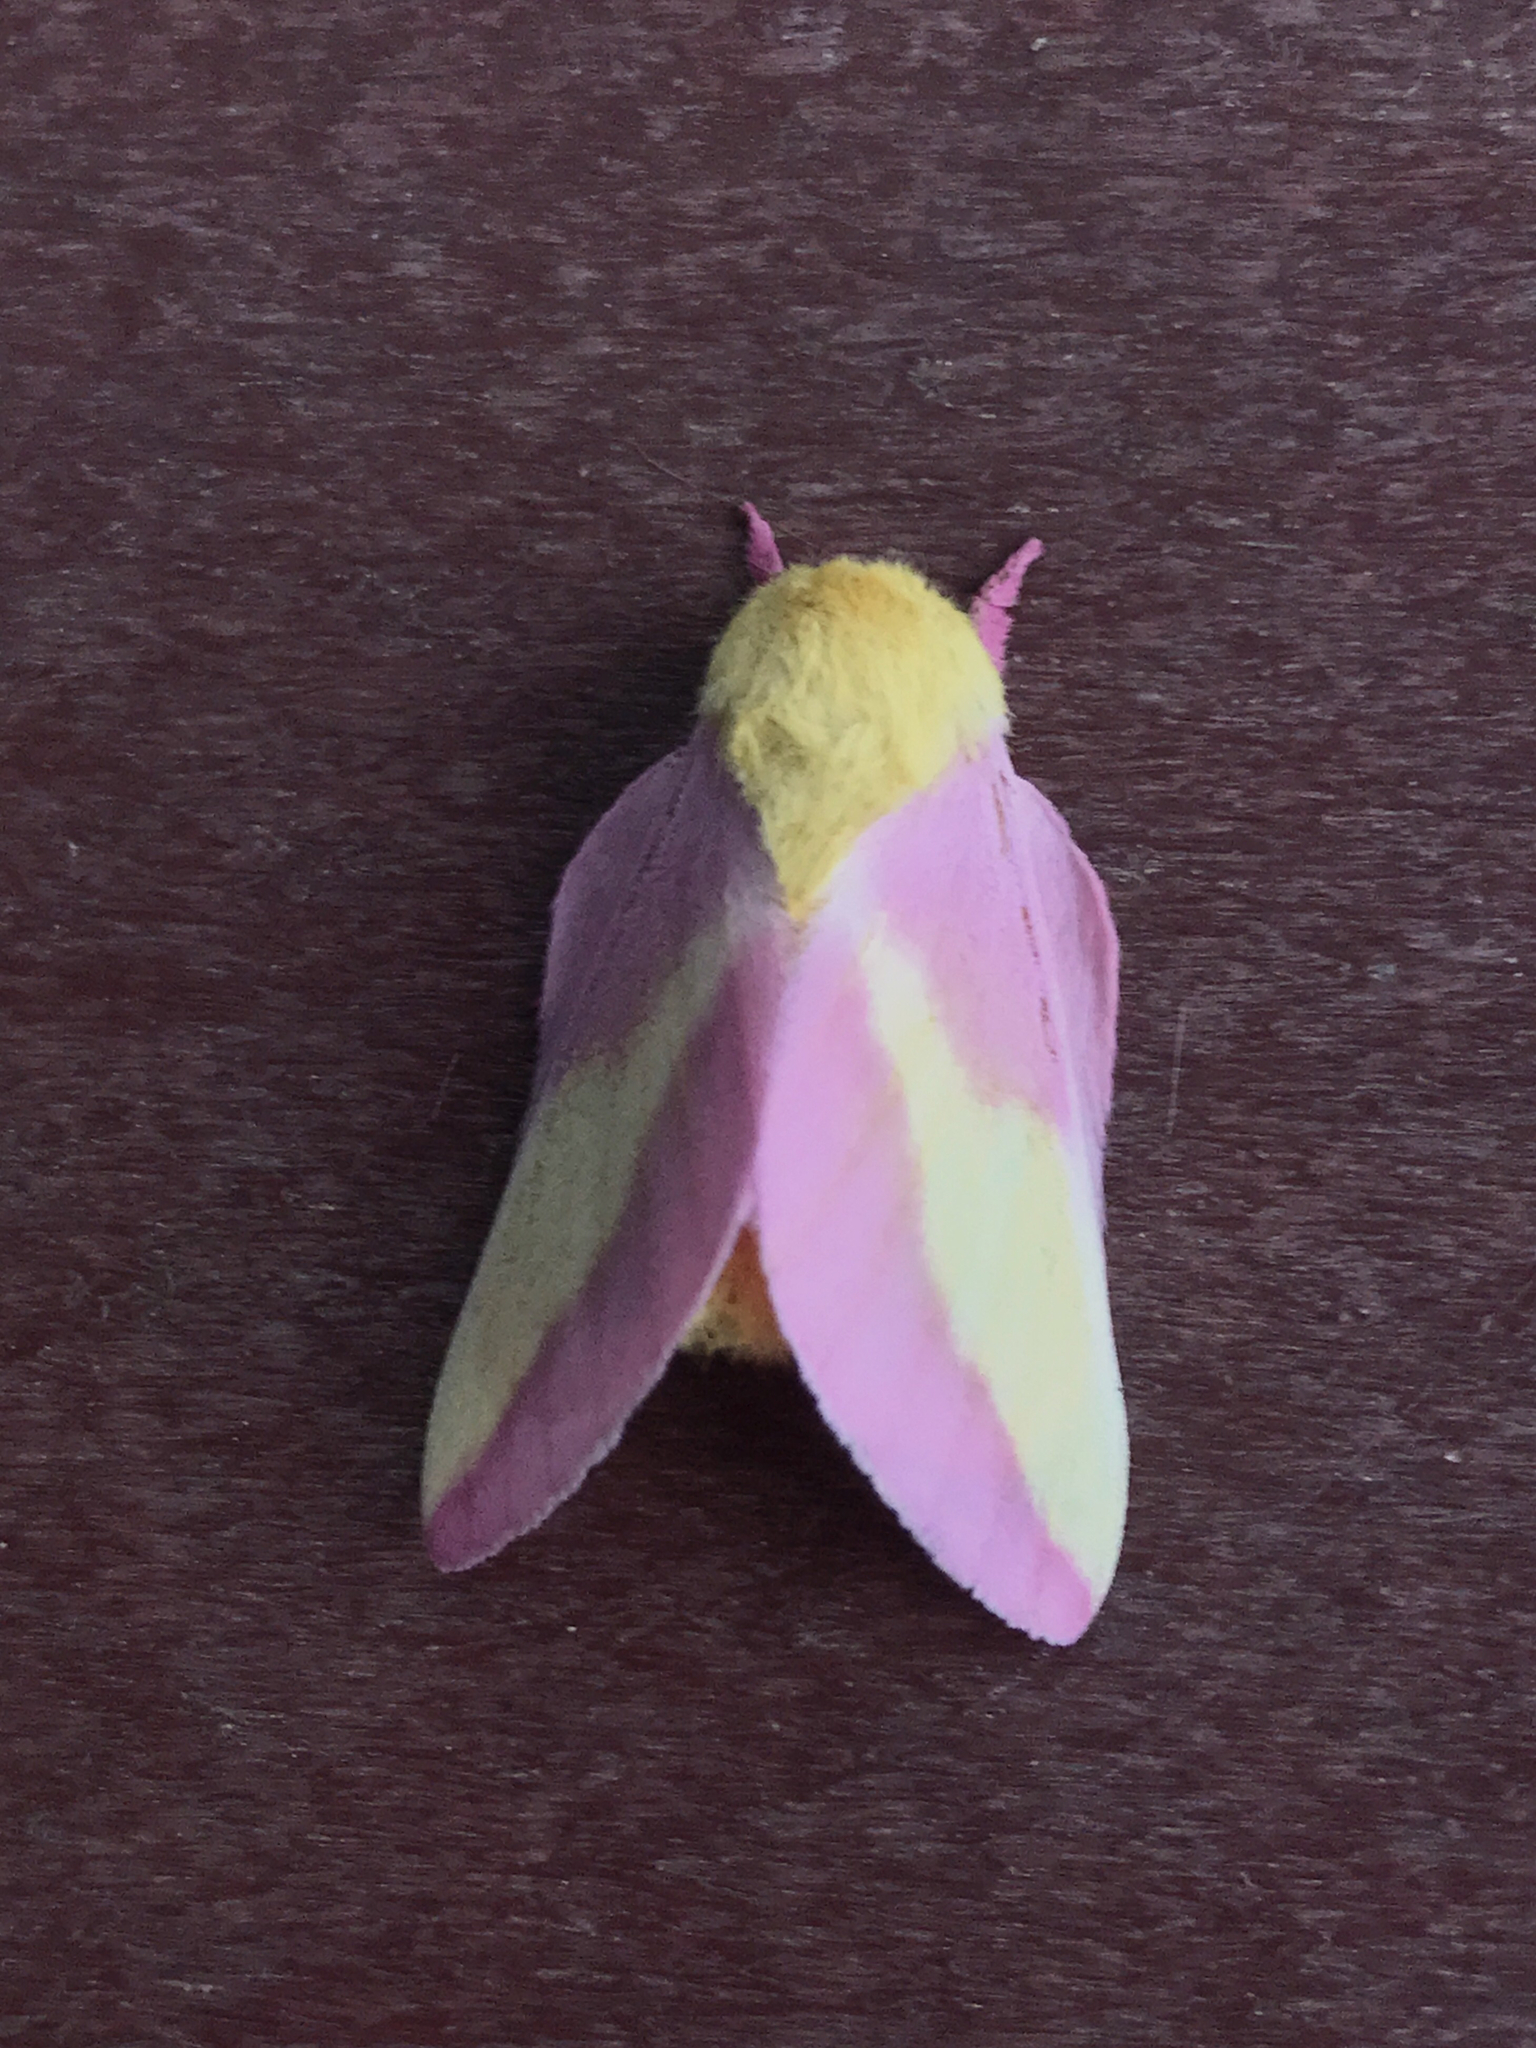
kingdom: Animalia
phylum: Arthropoda
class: Insecta
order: Lepidoptera
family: Saturniidae
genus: Dryocampa
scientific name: Dryocampa rubicunda
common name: Rosy maple moth
